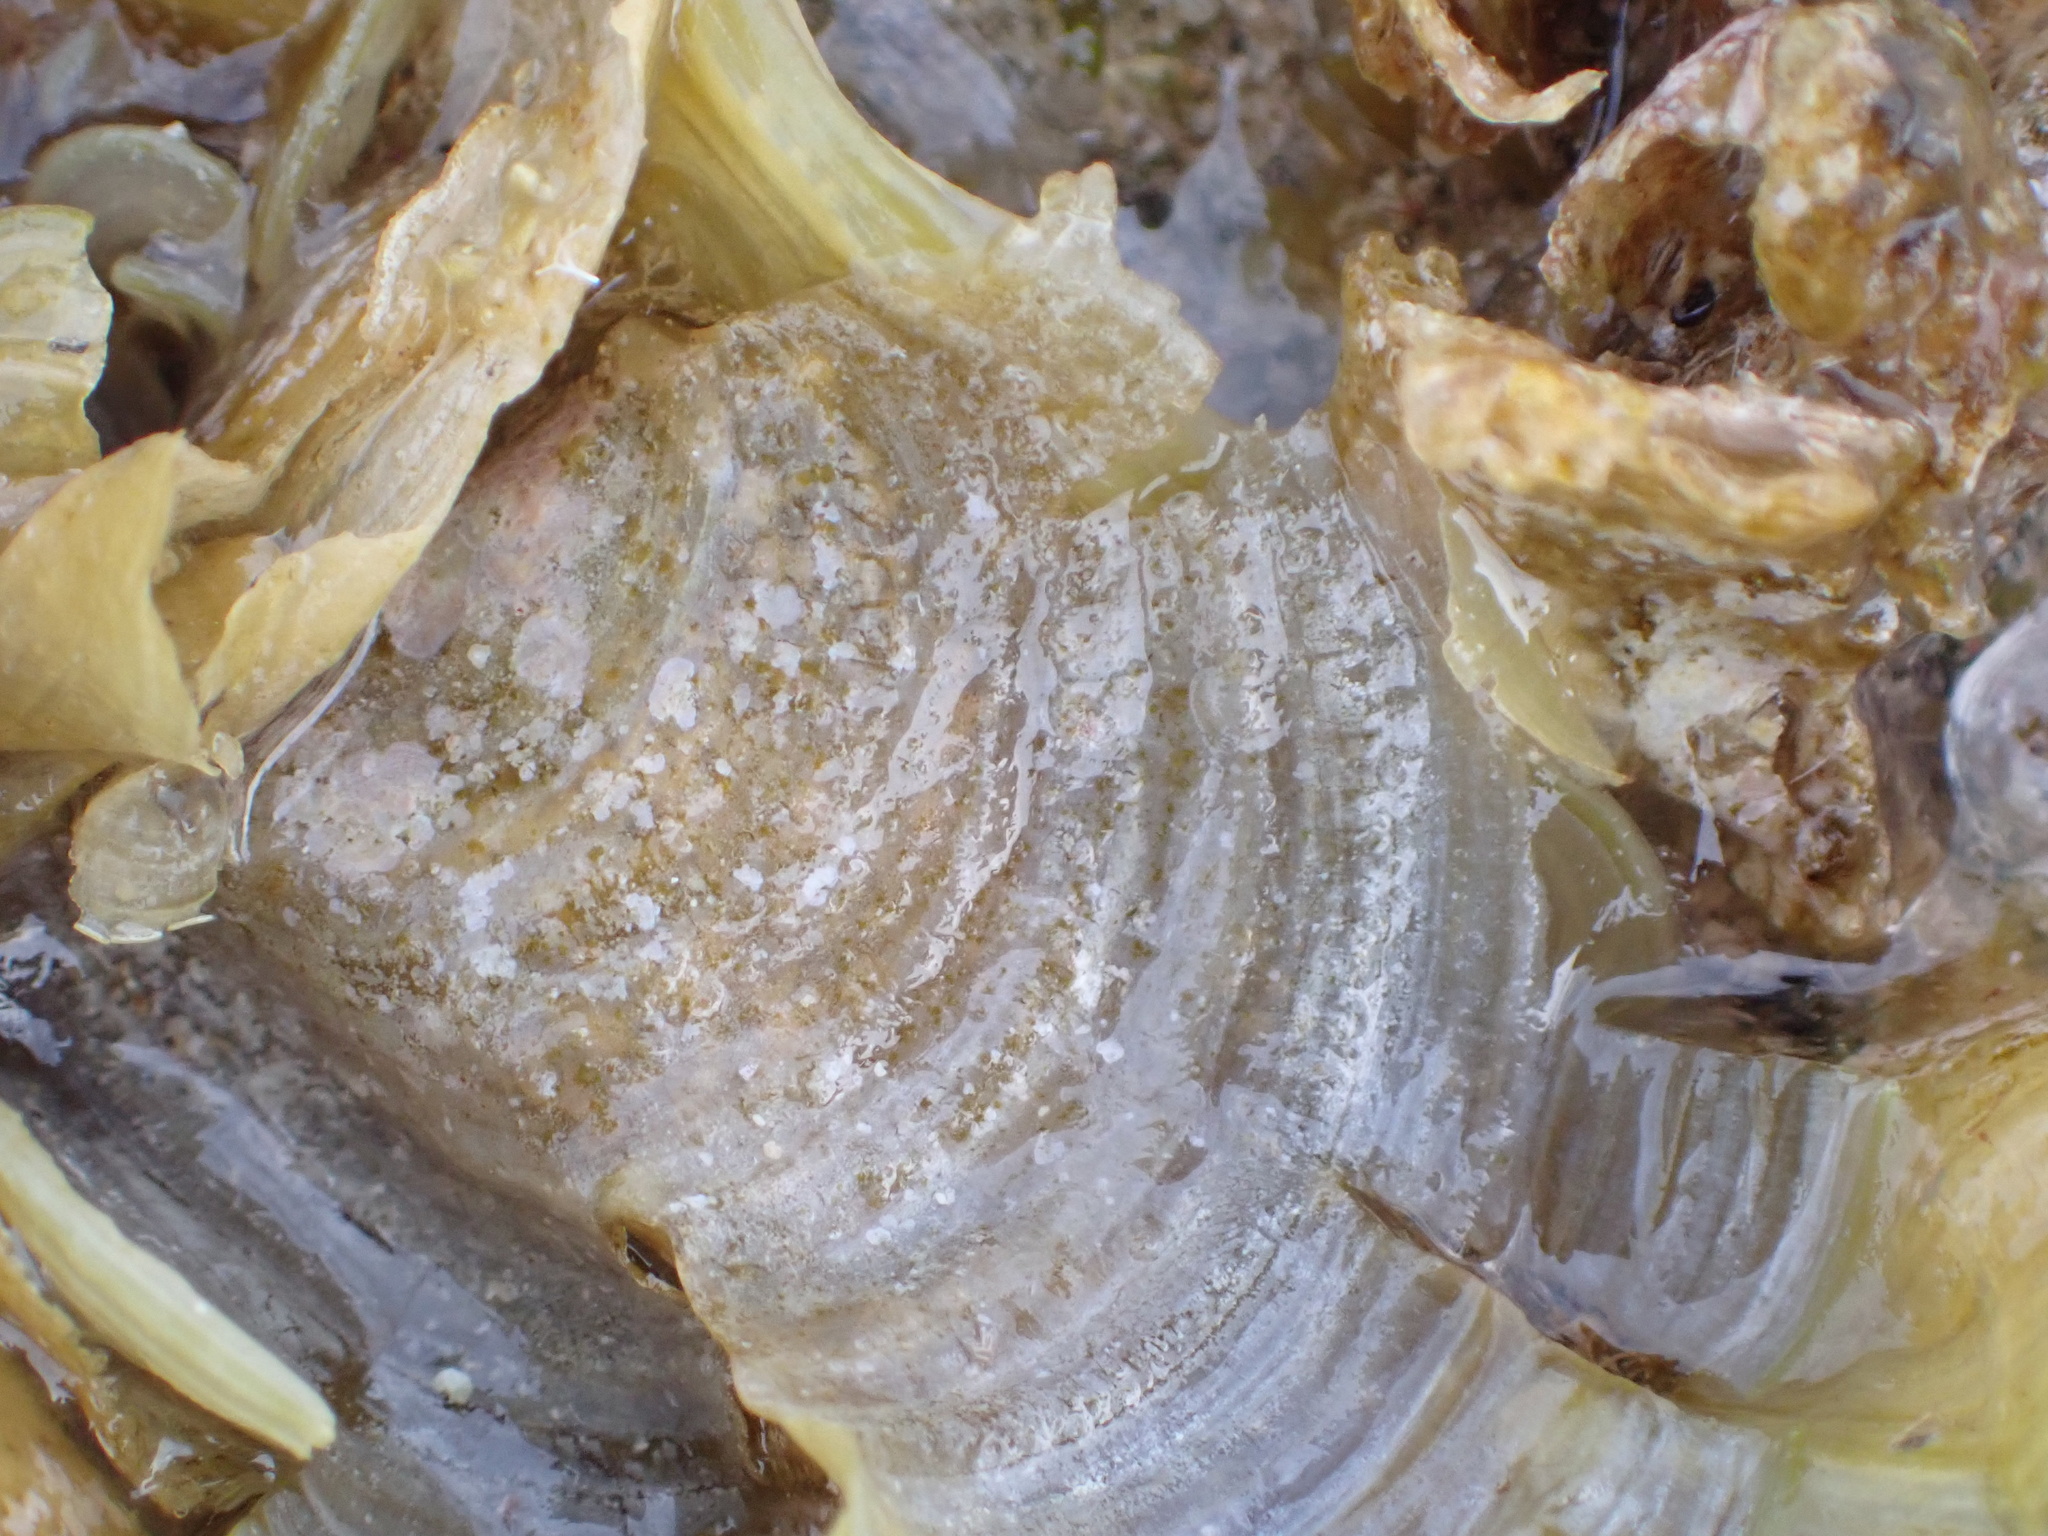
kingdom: Chromista
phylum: Ochrophyta
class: Phaeophyceae
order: Dictyotales
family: Dictyotaceae
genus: Padina
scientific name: Padina sanctae-crucis
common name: White scroll algae
